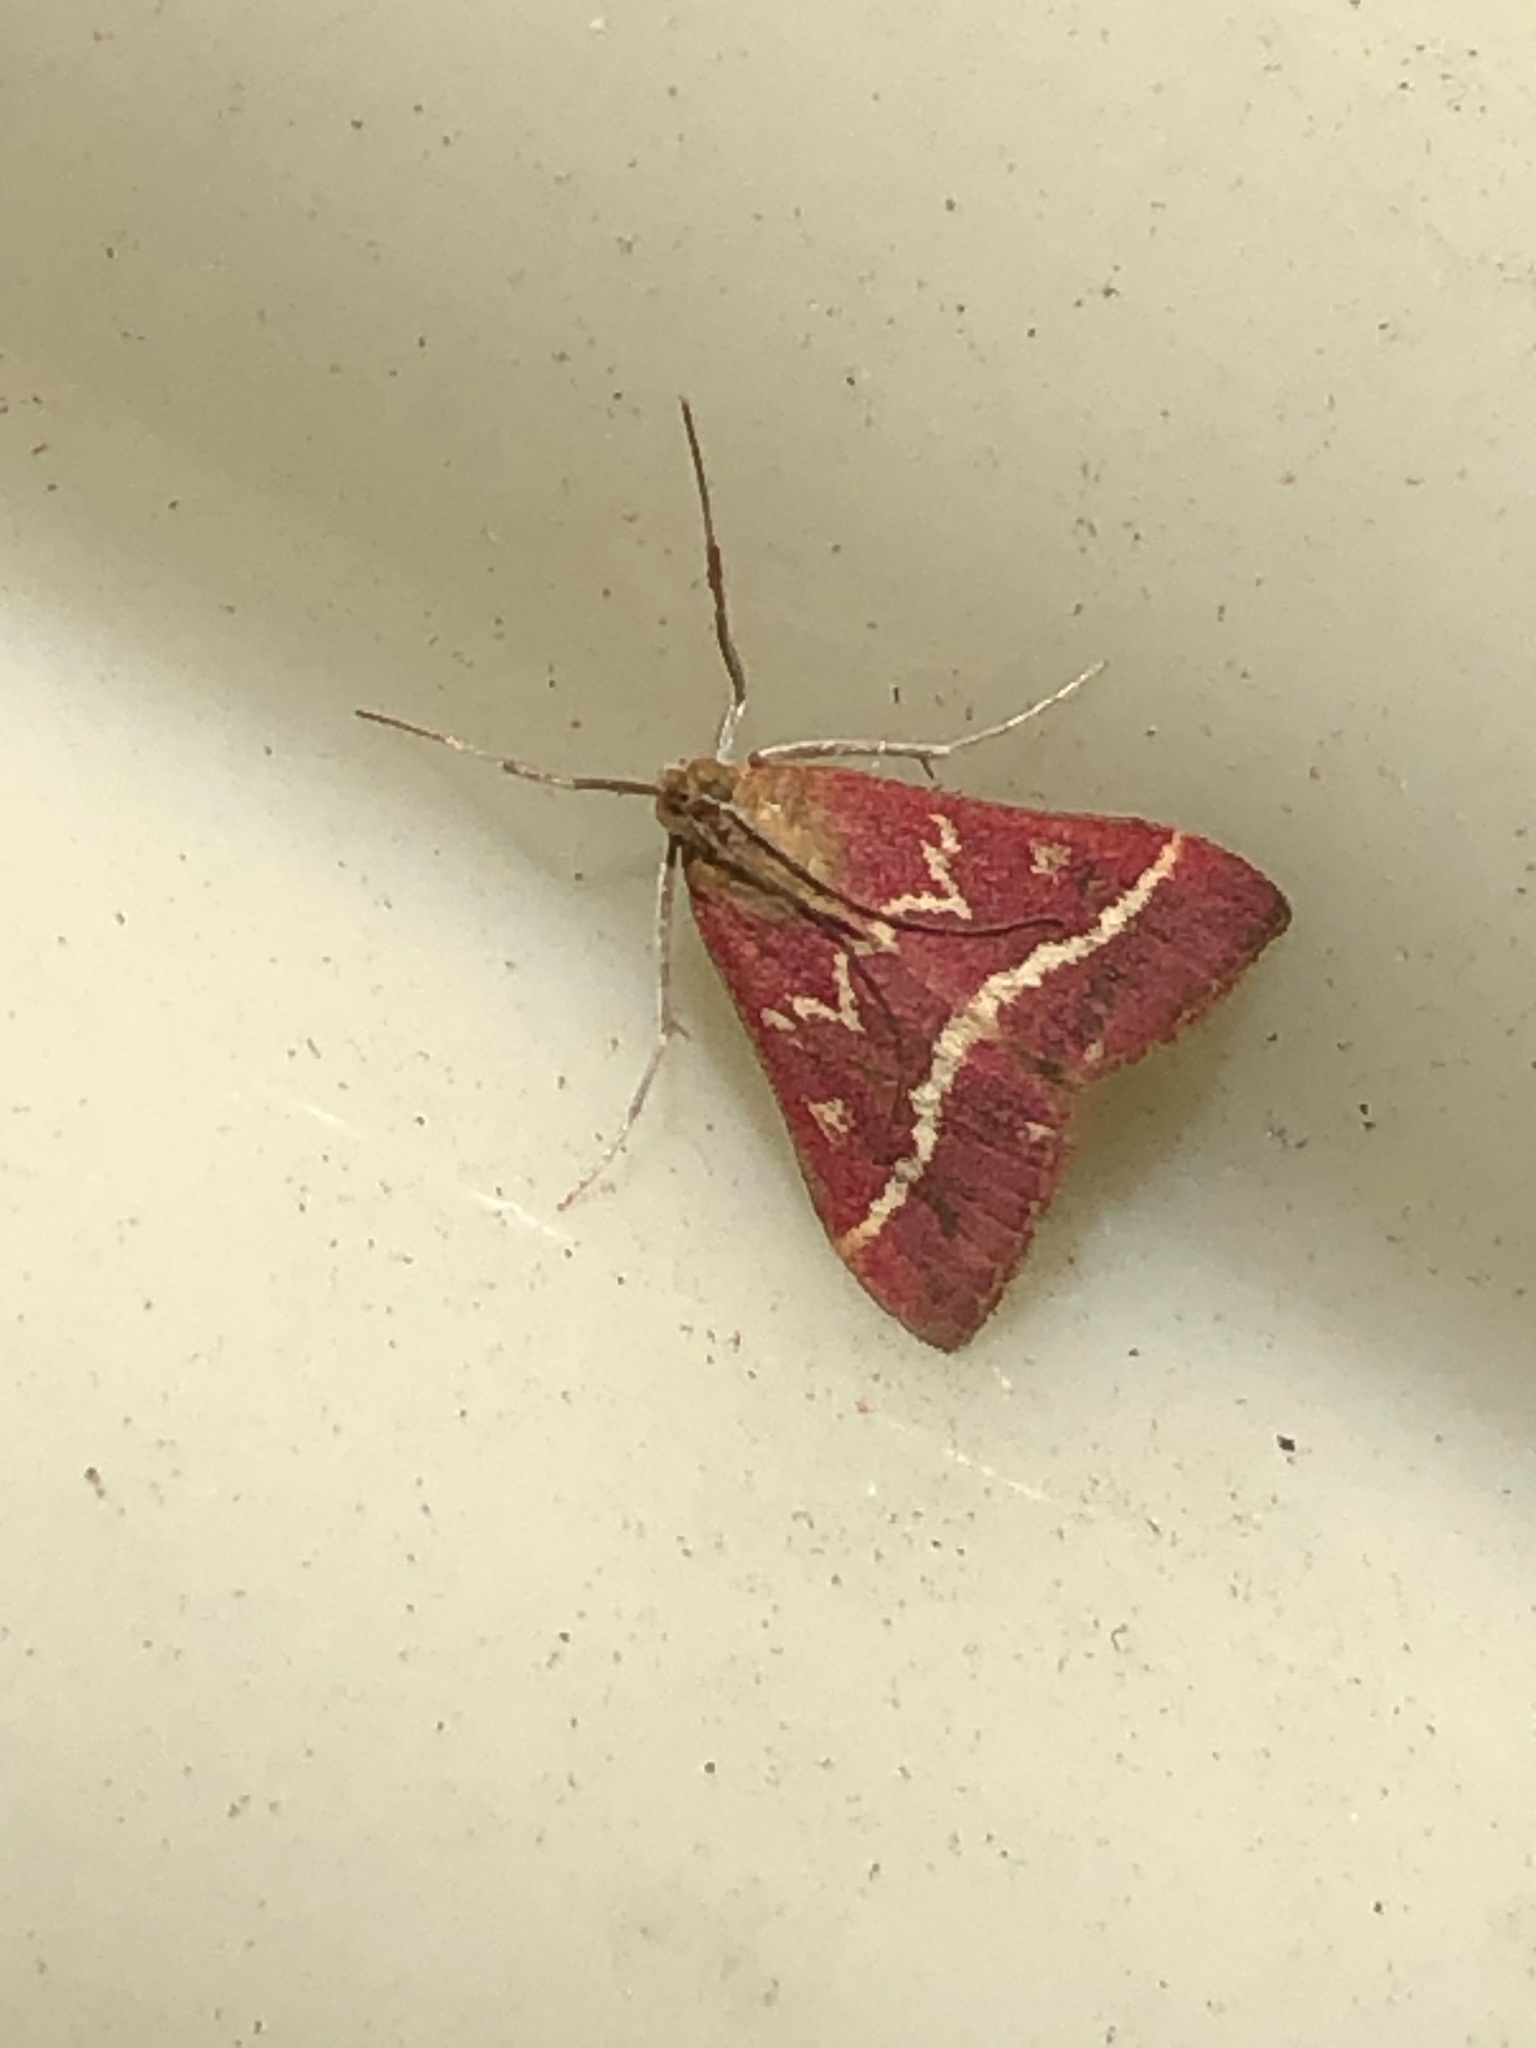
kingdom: Animalia
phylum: Arthropoda
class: Insecta
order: Lepidoptera
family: Crambidae
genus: Pyrausta
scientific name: Pyrausta volupialis
